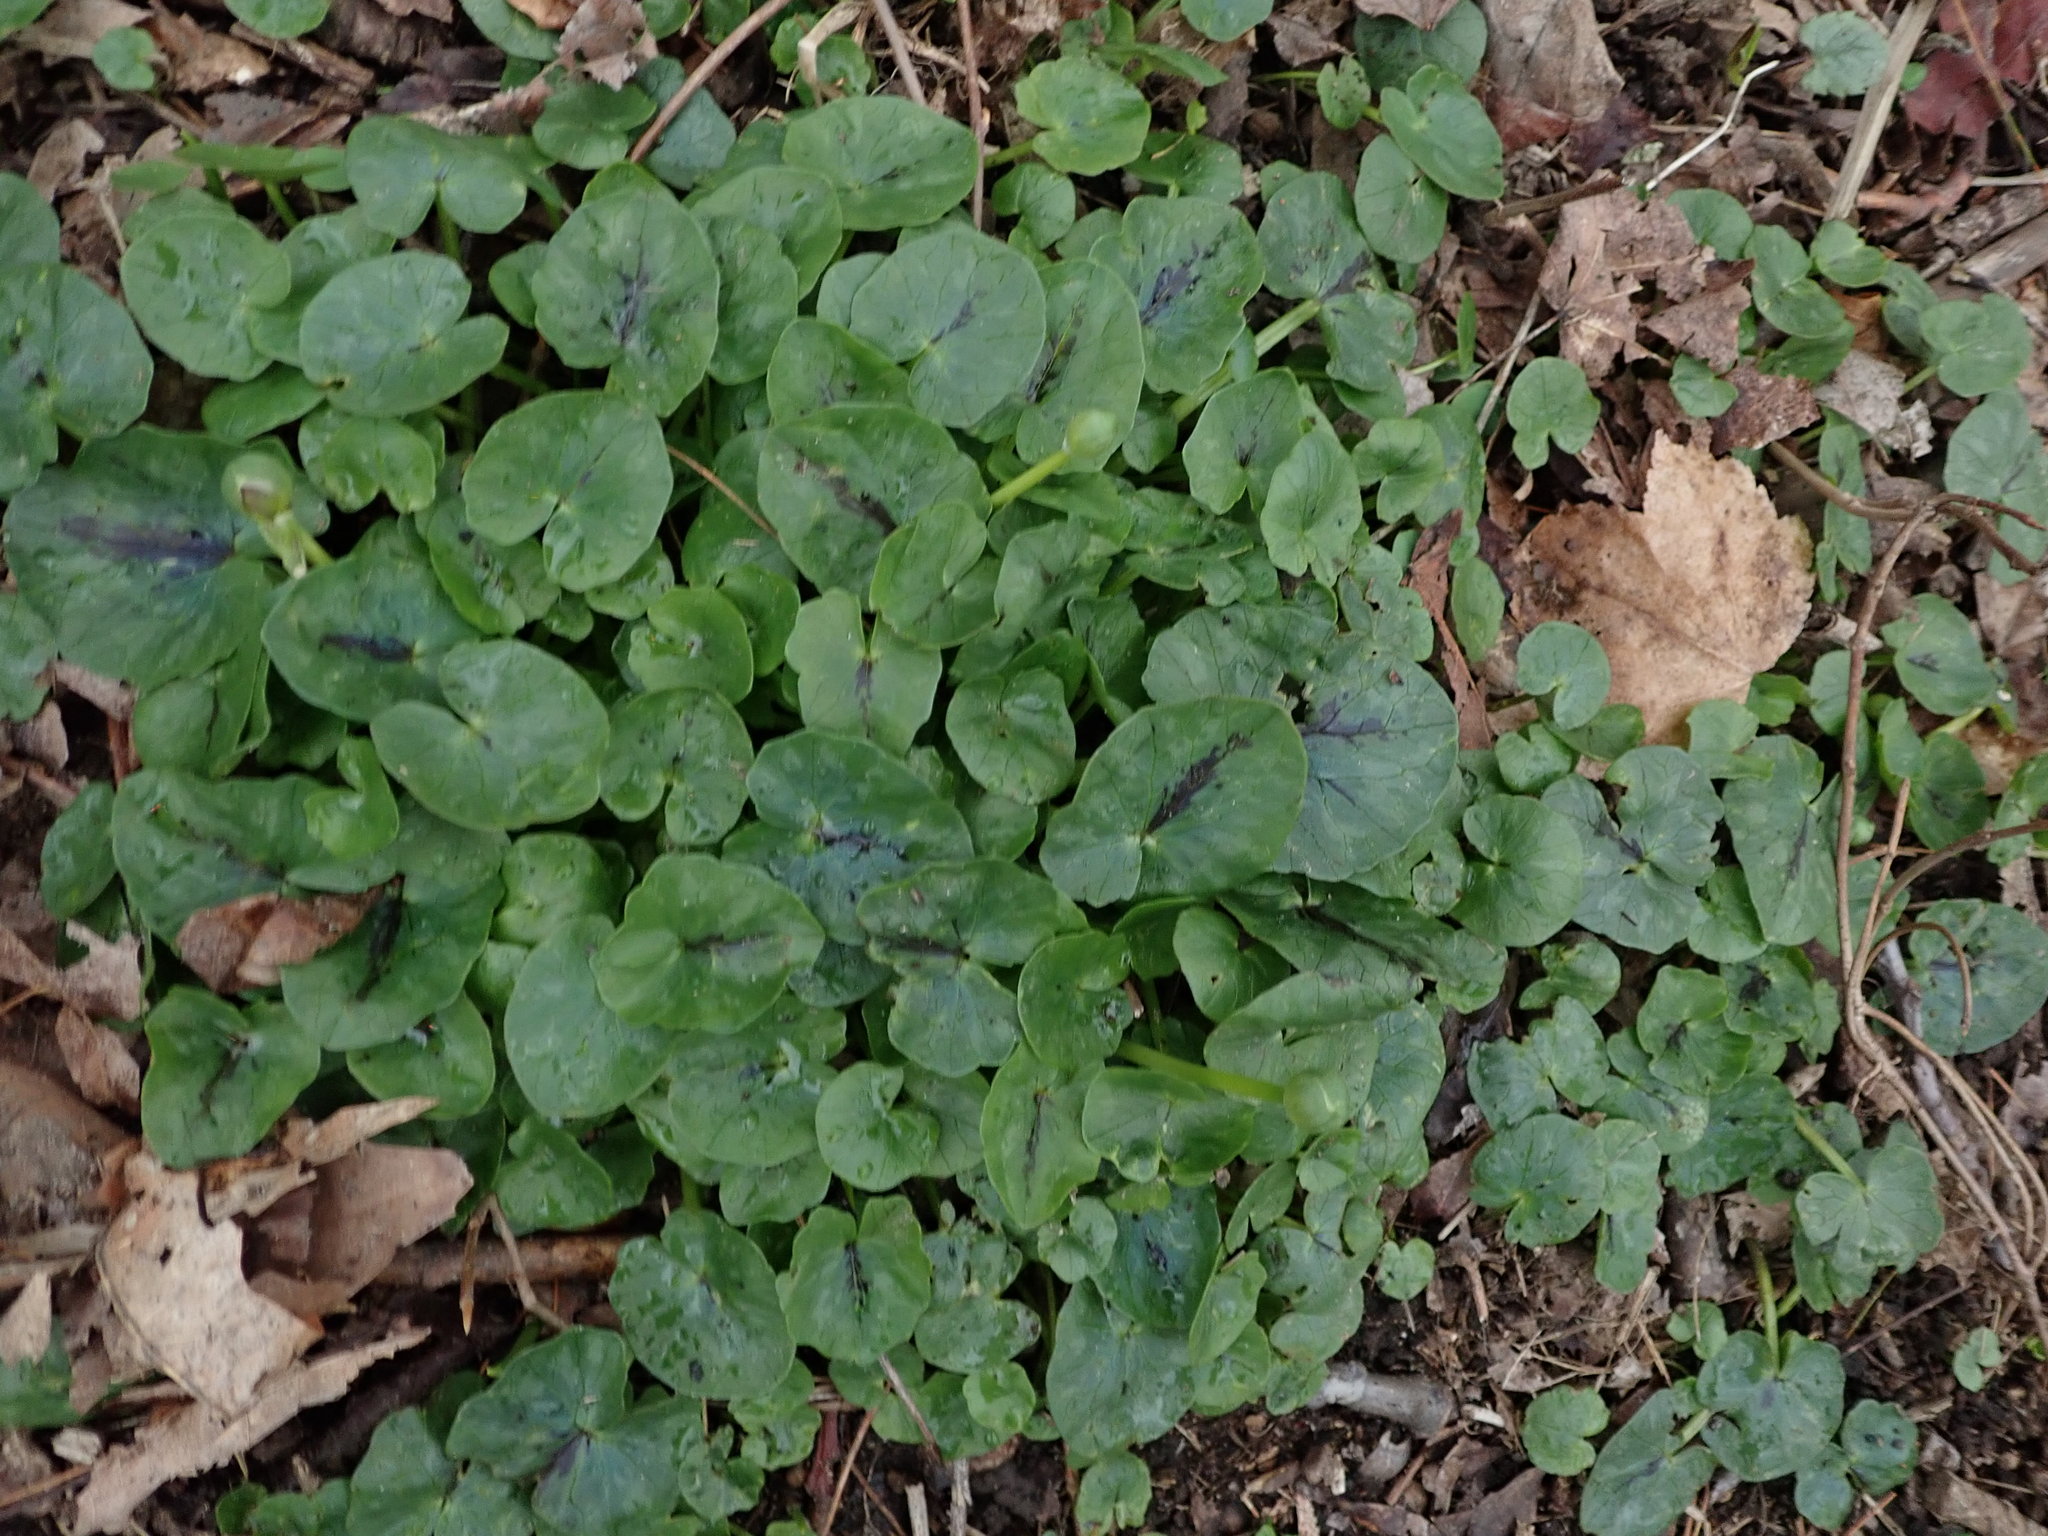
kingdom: Plantae
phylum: Tracheophyta
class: Magnoliopsida
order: Ranunculales
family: Ranunculaceae
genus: Ficaria
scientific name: Ficaria verna
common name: Lesser celandine
